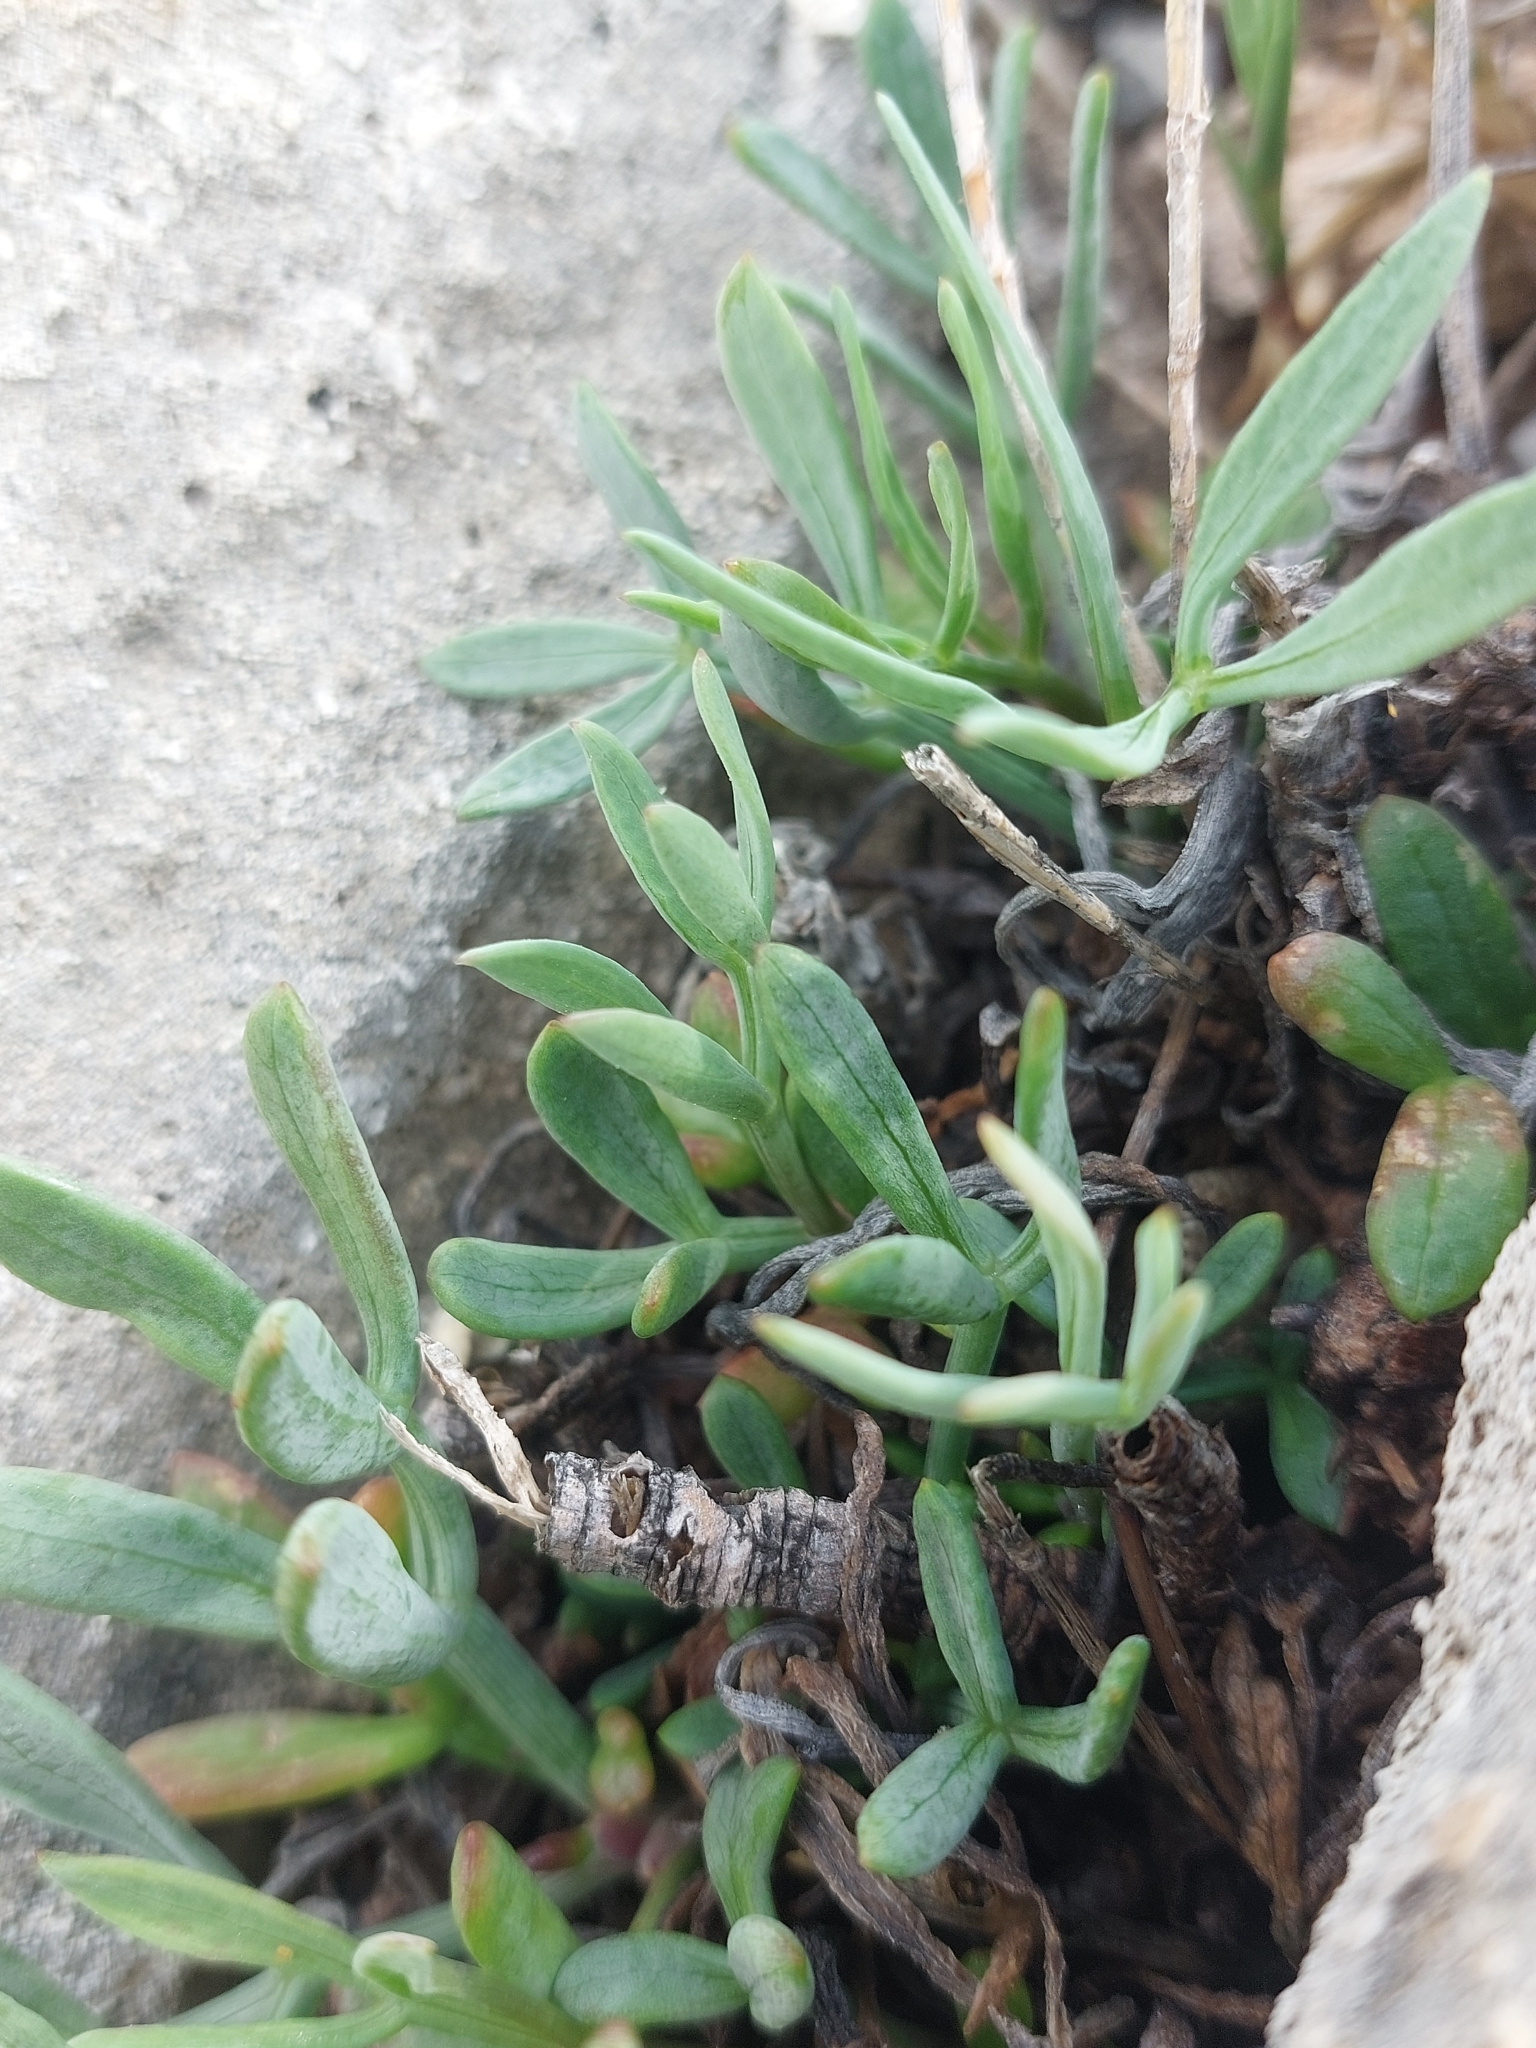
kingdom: Plantae
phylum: Tracheophyta
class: Magnoliopsida
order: Apiales
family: Apiaceae
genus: Crithmum
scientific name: Crithmum maritimum
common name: Rock samphire
